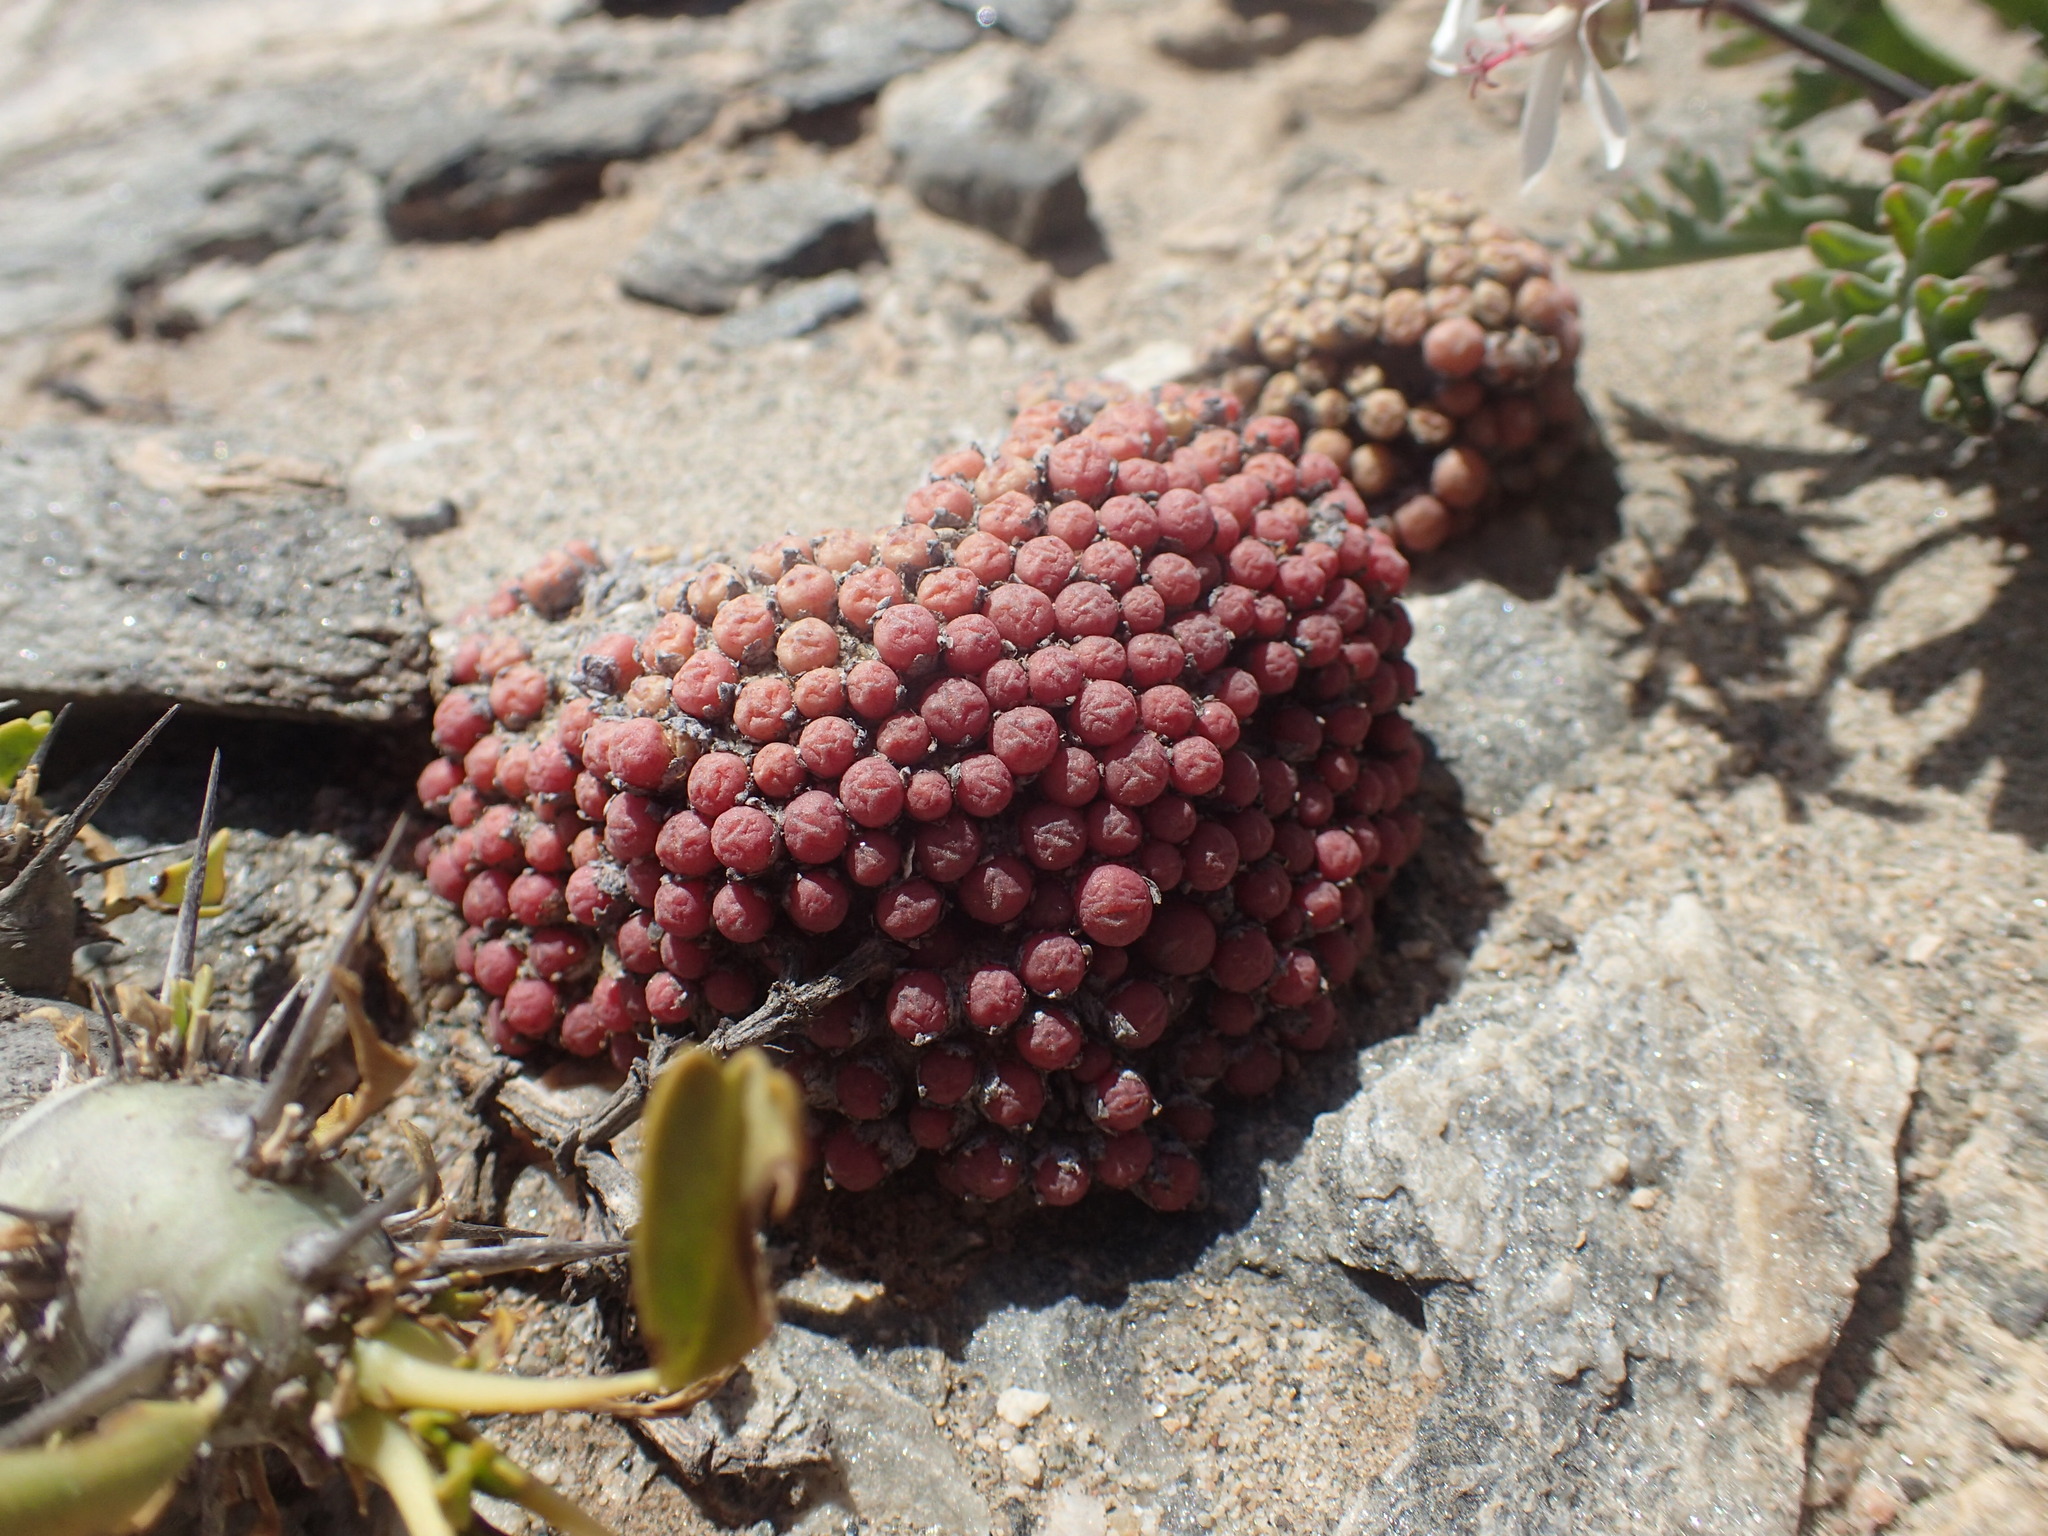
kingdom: Plantae
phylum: Tracheophyta
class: Magnoliopsida
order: Caryophyllales
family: Aizoaceae
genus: Conophytum
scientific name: Conophytum saxetanum
